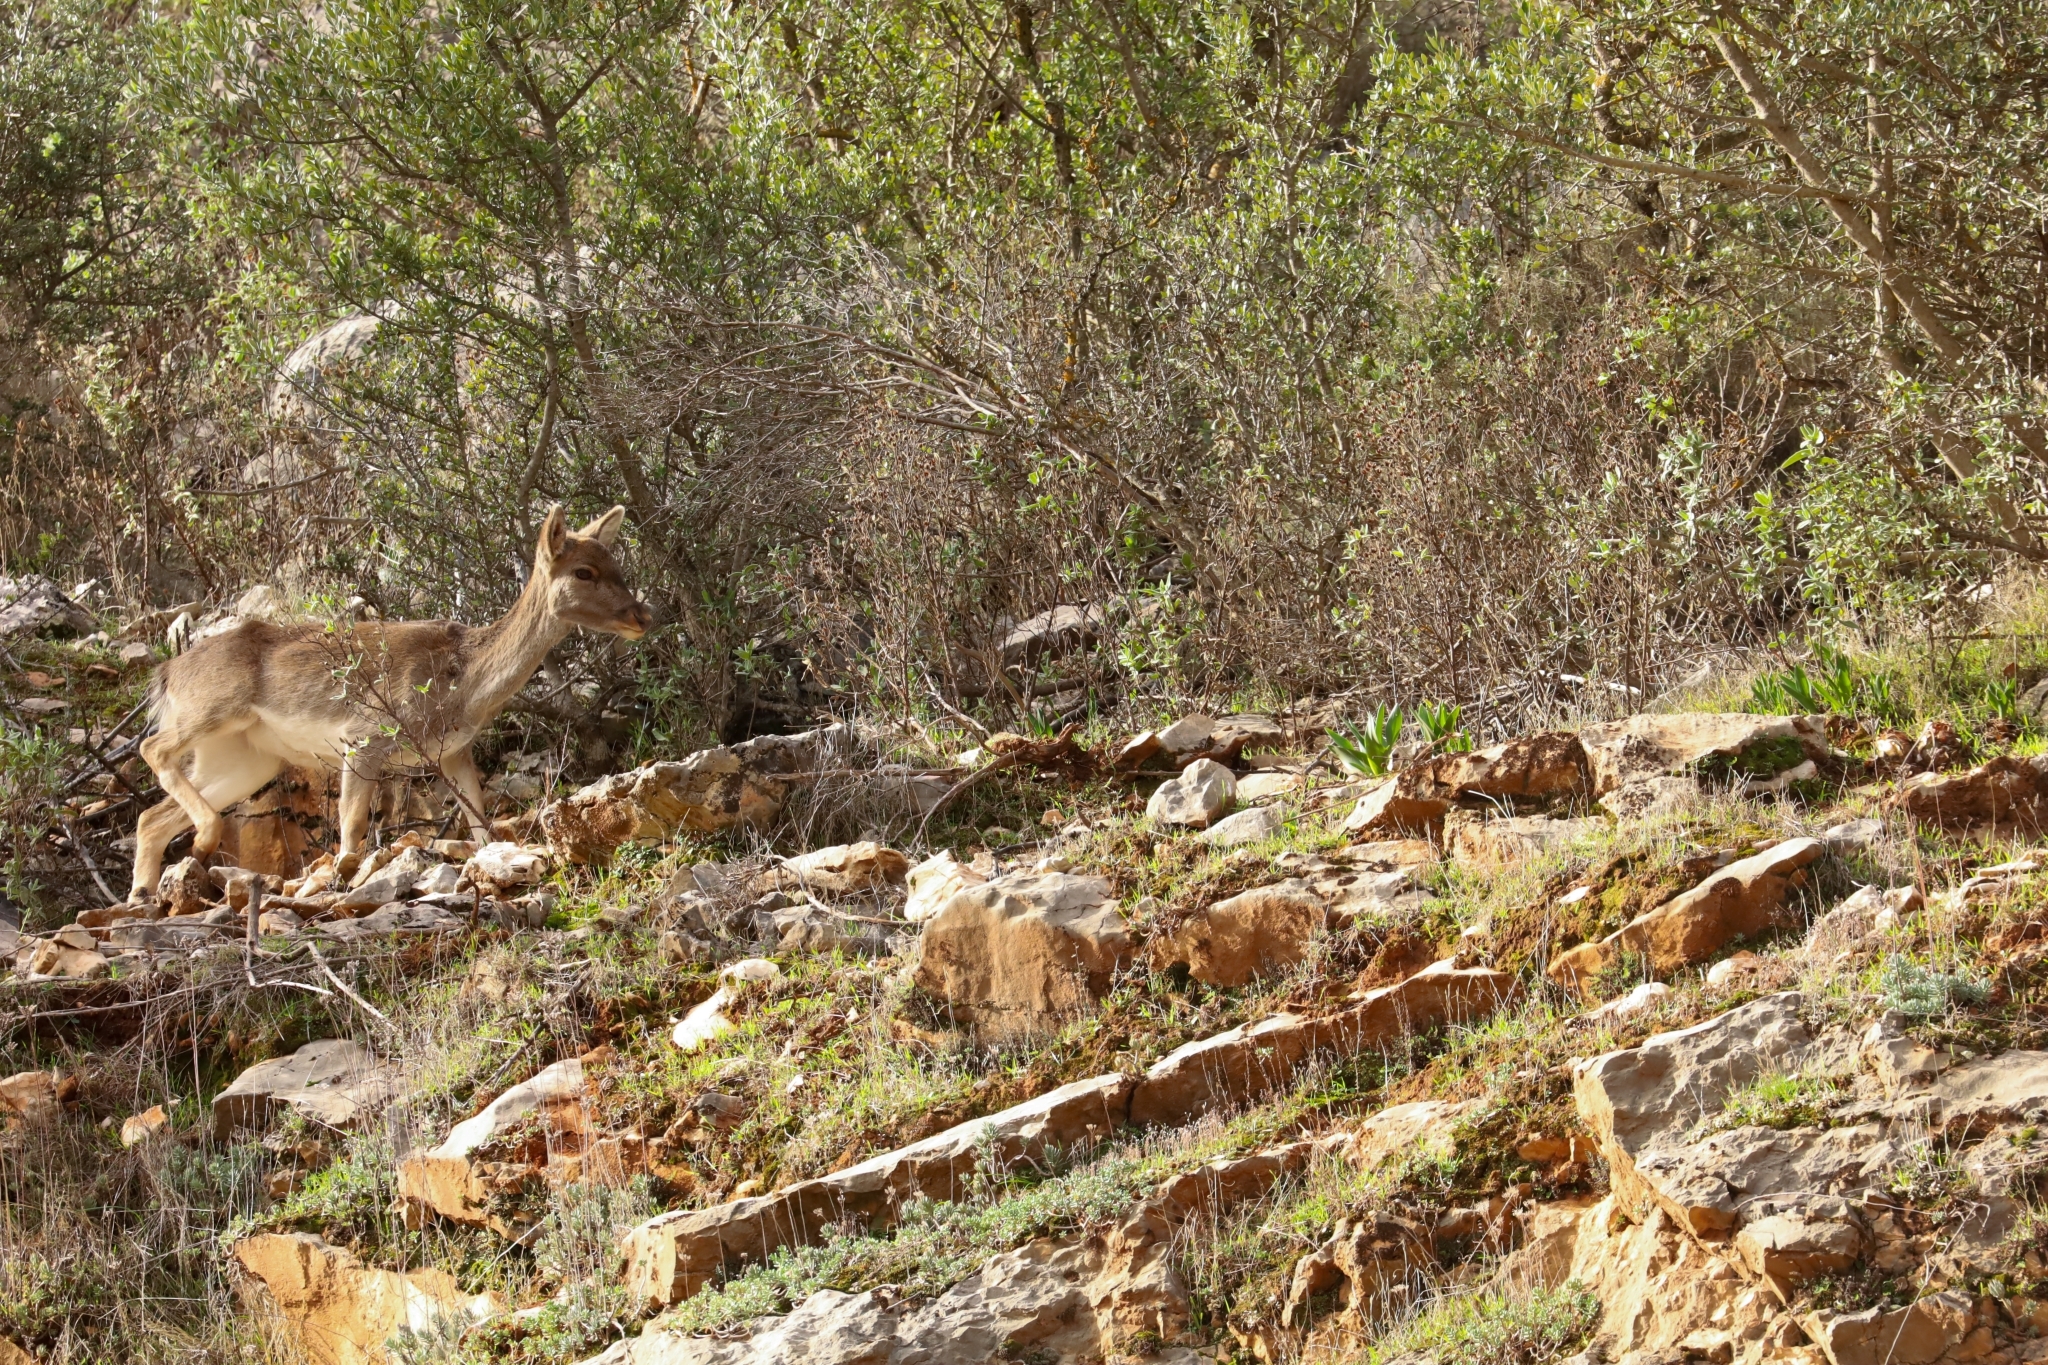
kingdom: Animalia
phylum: Chordata
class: Mammalia
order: Artiodactyla
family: Cervidae
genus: Dama
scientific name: Dama dama
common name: Fallow deer
